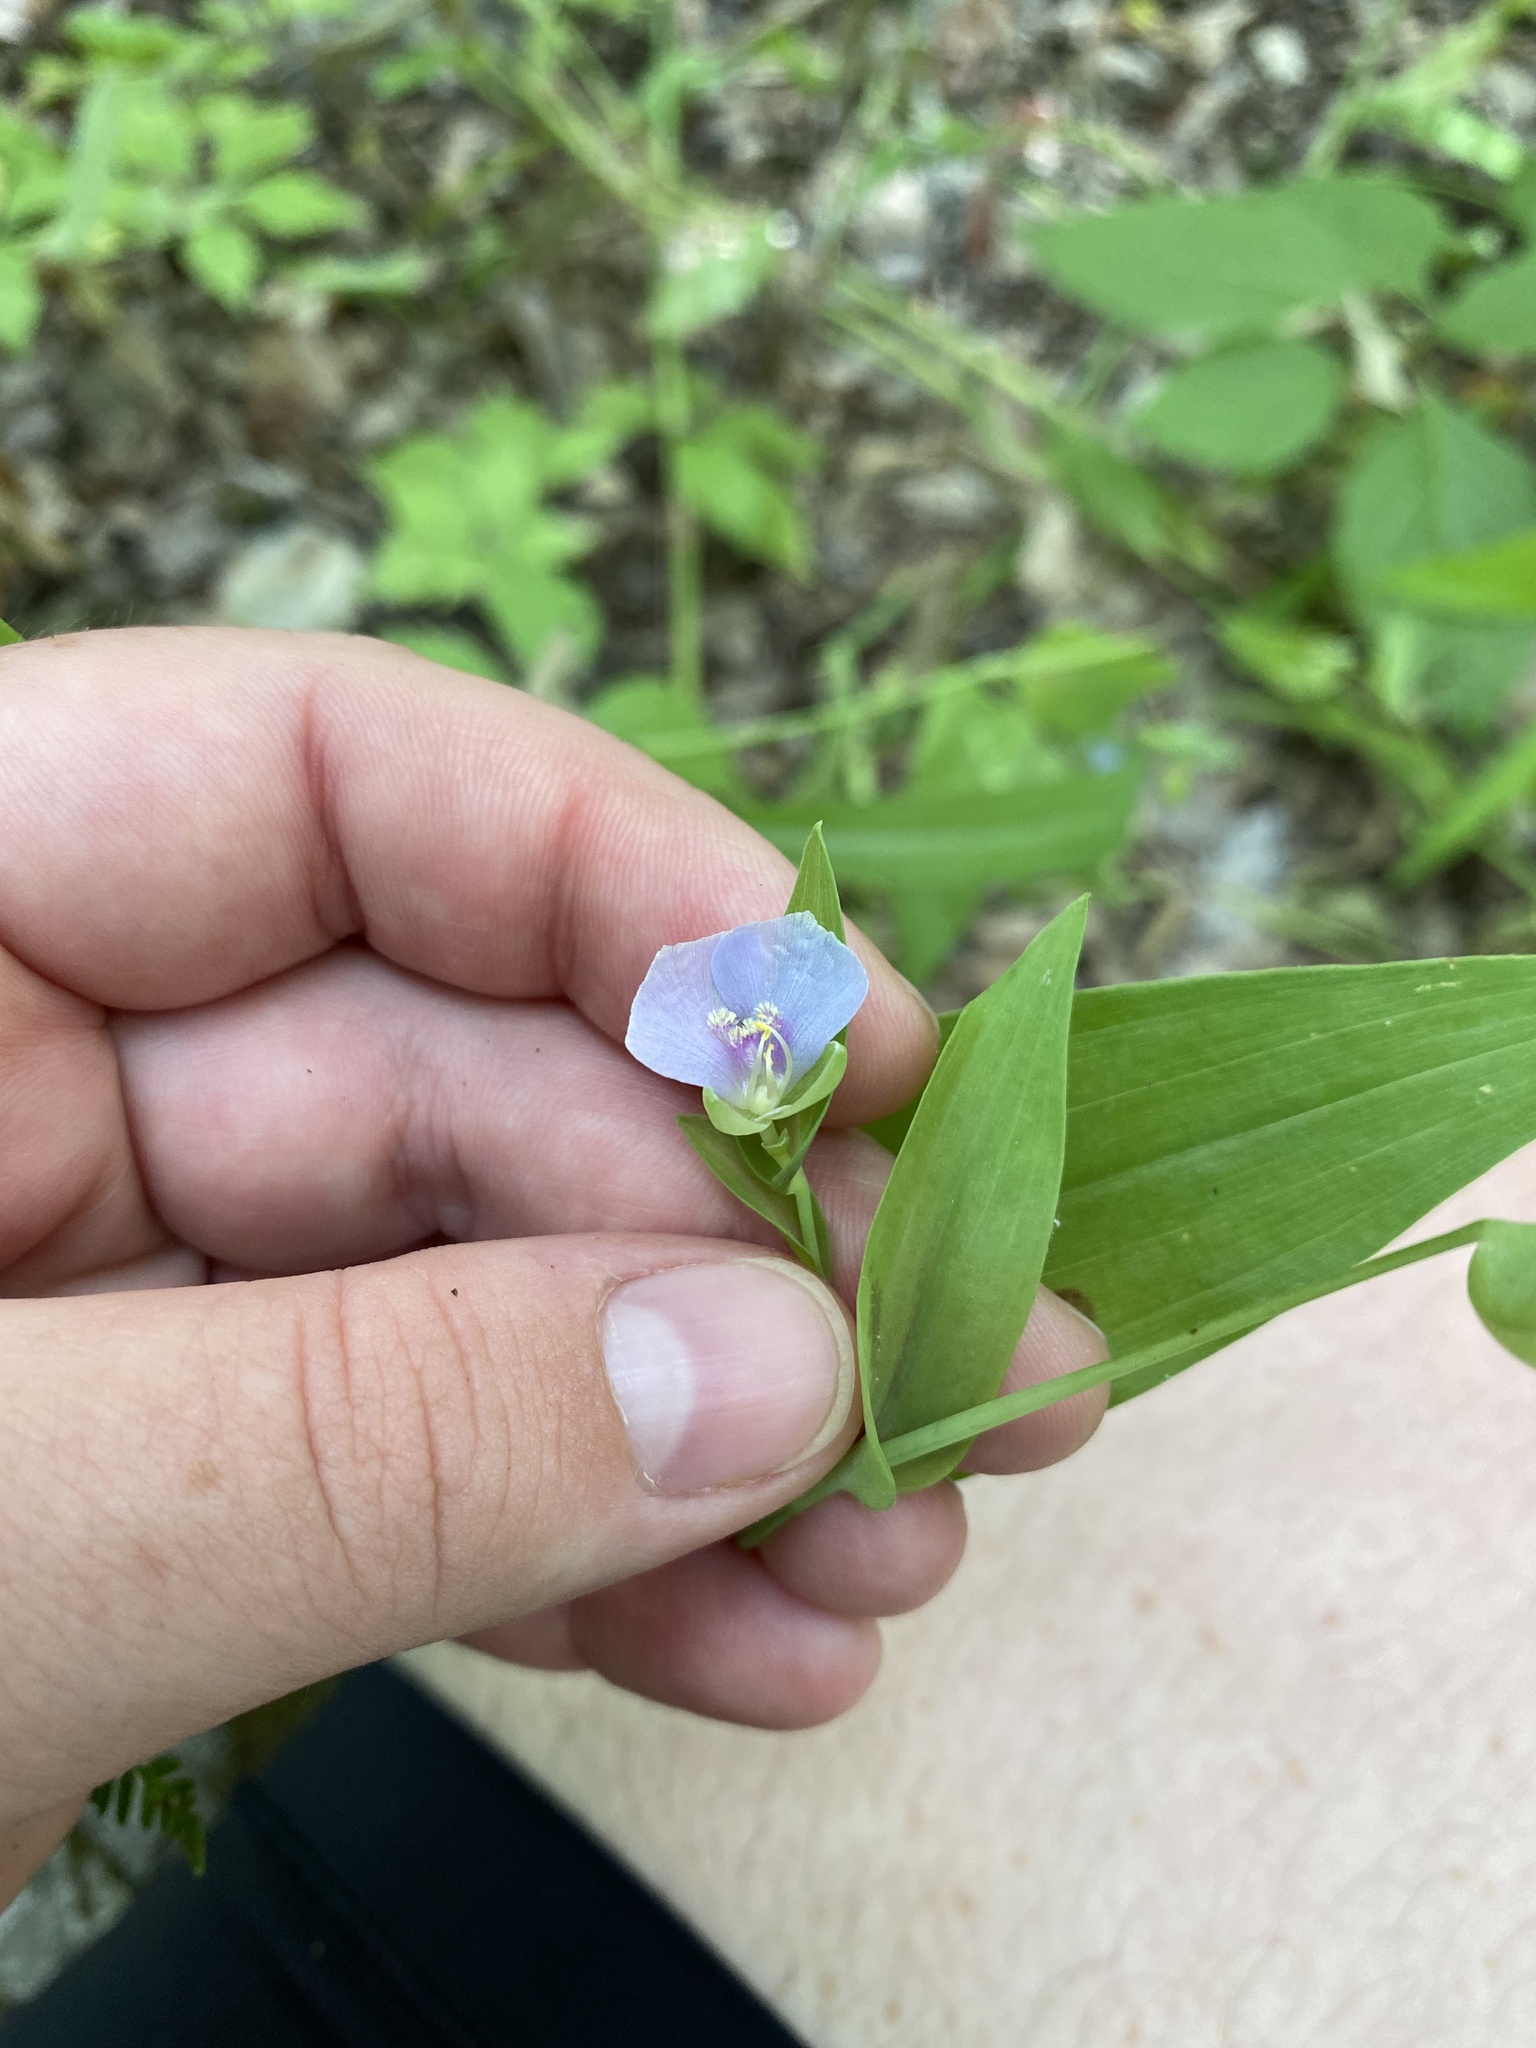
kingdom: Plantae
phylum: Tracheophyta
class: Liliopsida
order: Commelinales
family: Commelinaceae
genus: Tinantia
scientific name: Tinantia anomala
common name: False dayflower
